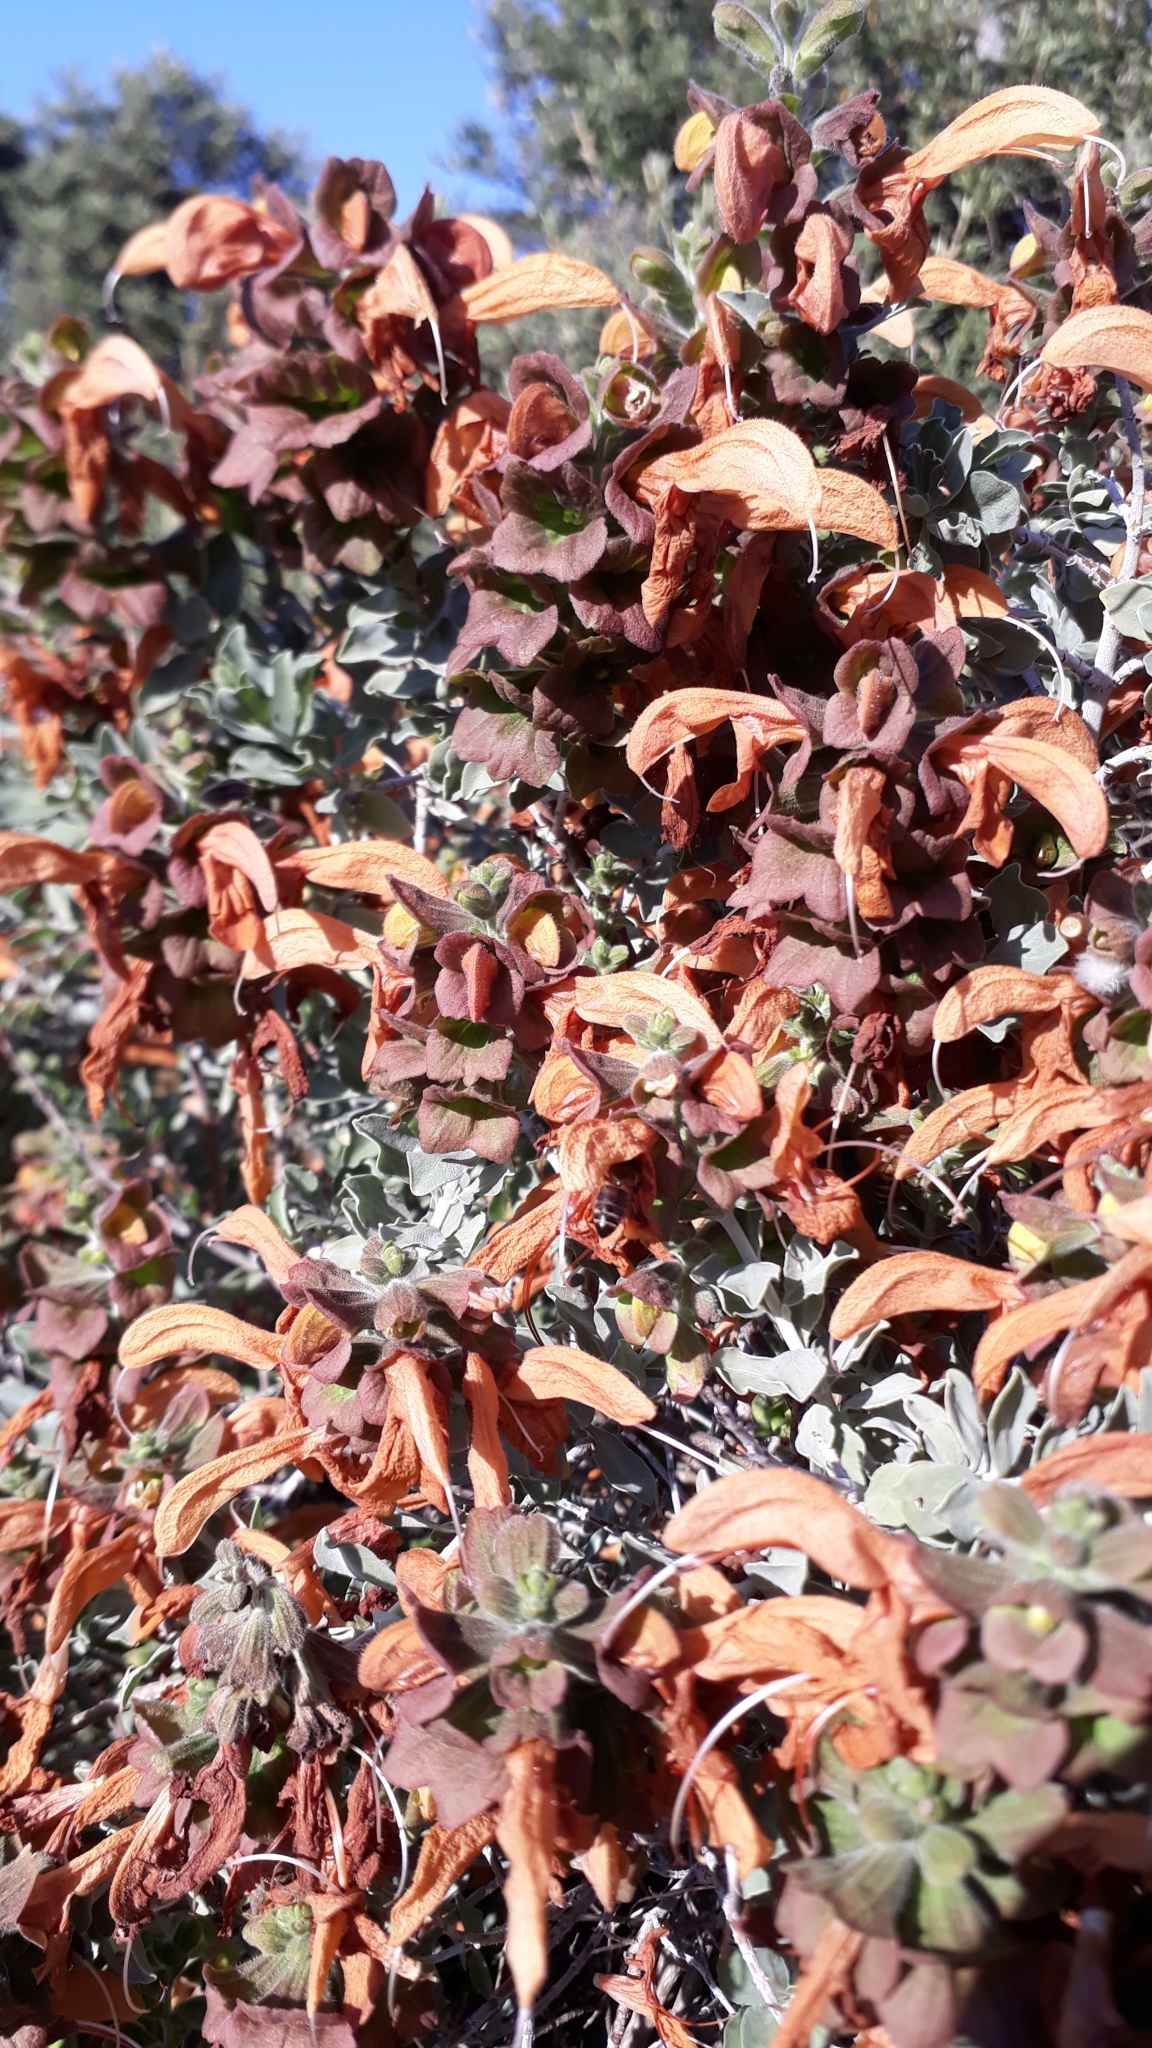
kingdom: Plantae
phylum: Tracheophyta
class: Magnoliopsida
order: Lamiales
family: Lamiaceae
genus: Salvia
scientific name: Salvia aurea
